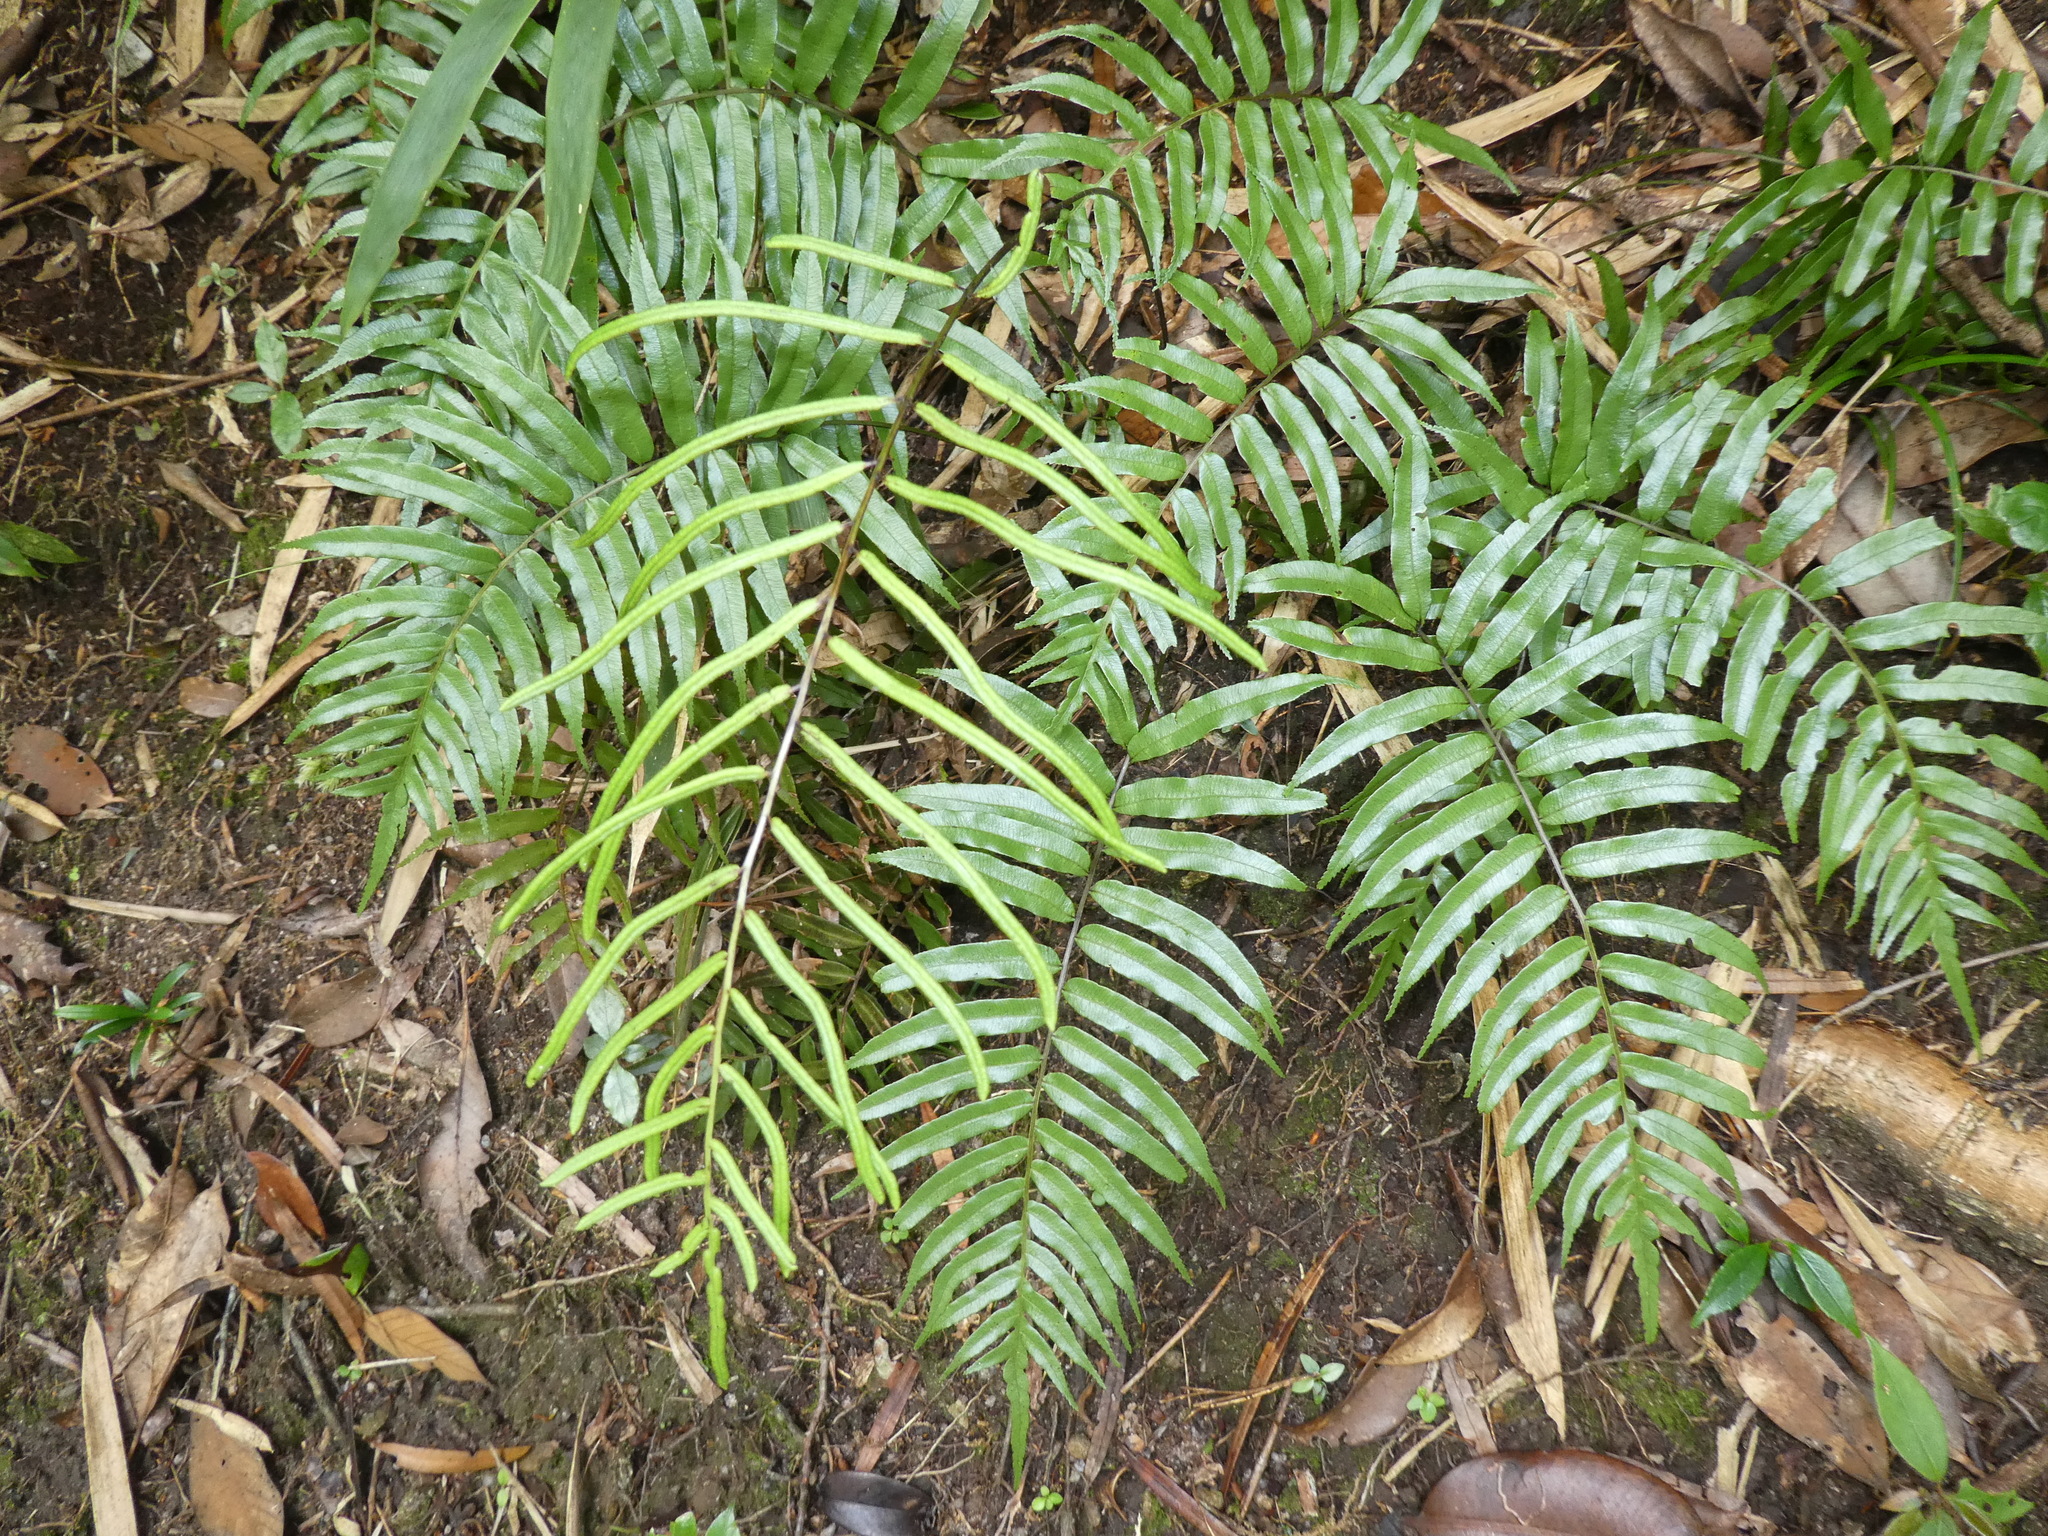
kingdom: Plantae
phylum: Tracheophyta
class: Polypodiopsida
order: Cyatheales
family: Plagiogyriaceae
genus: Plagiogyria
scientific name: Plagiogyria japonica
